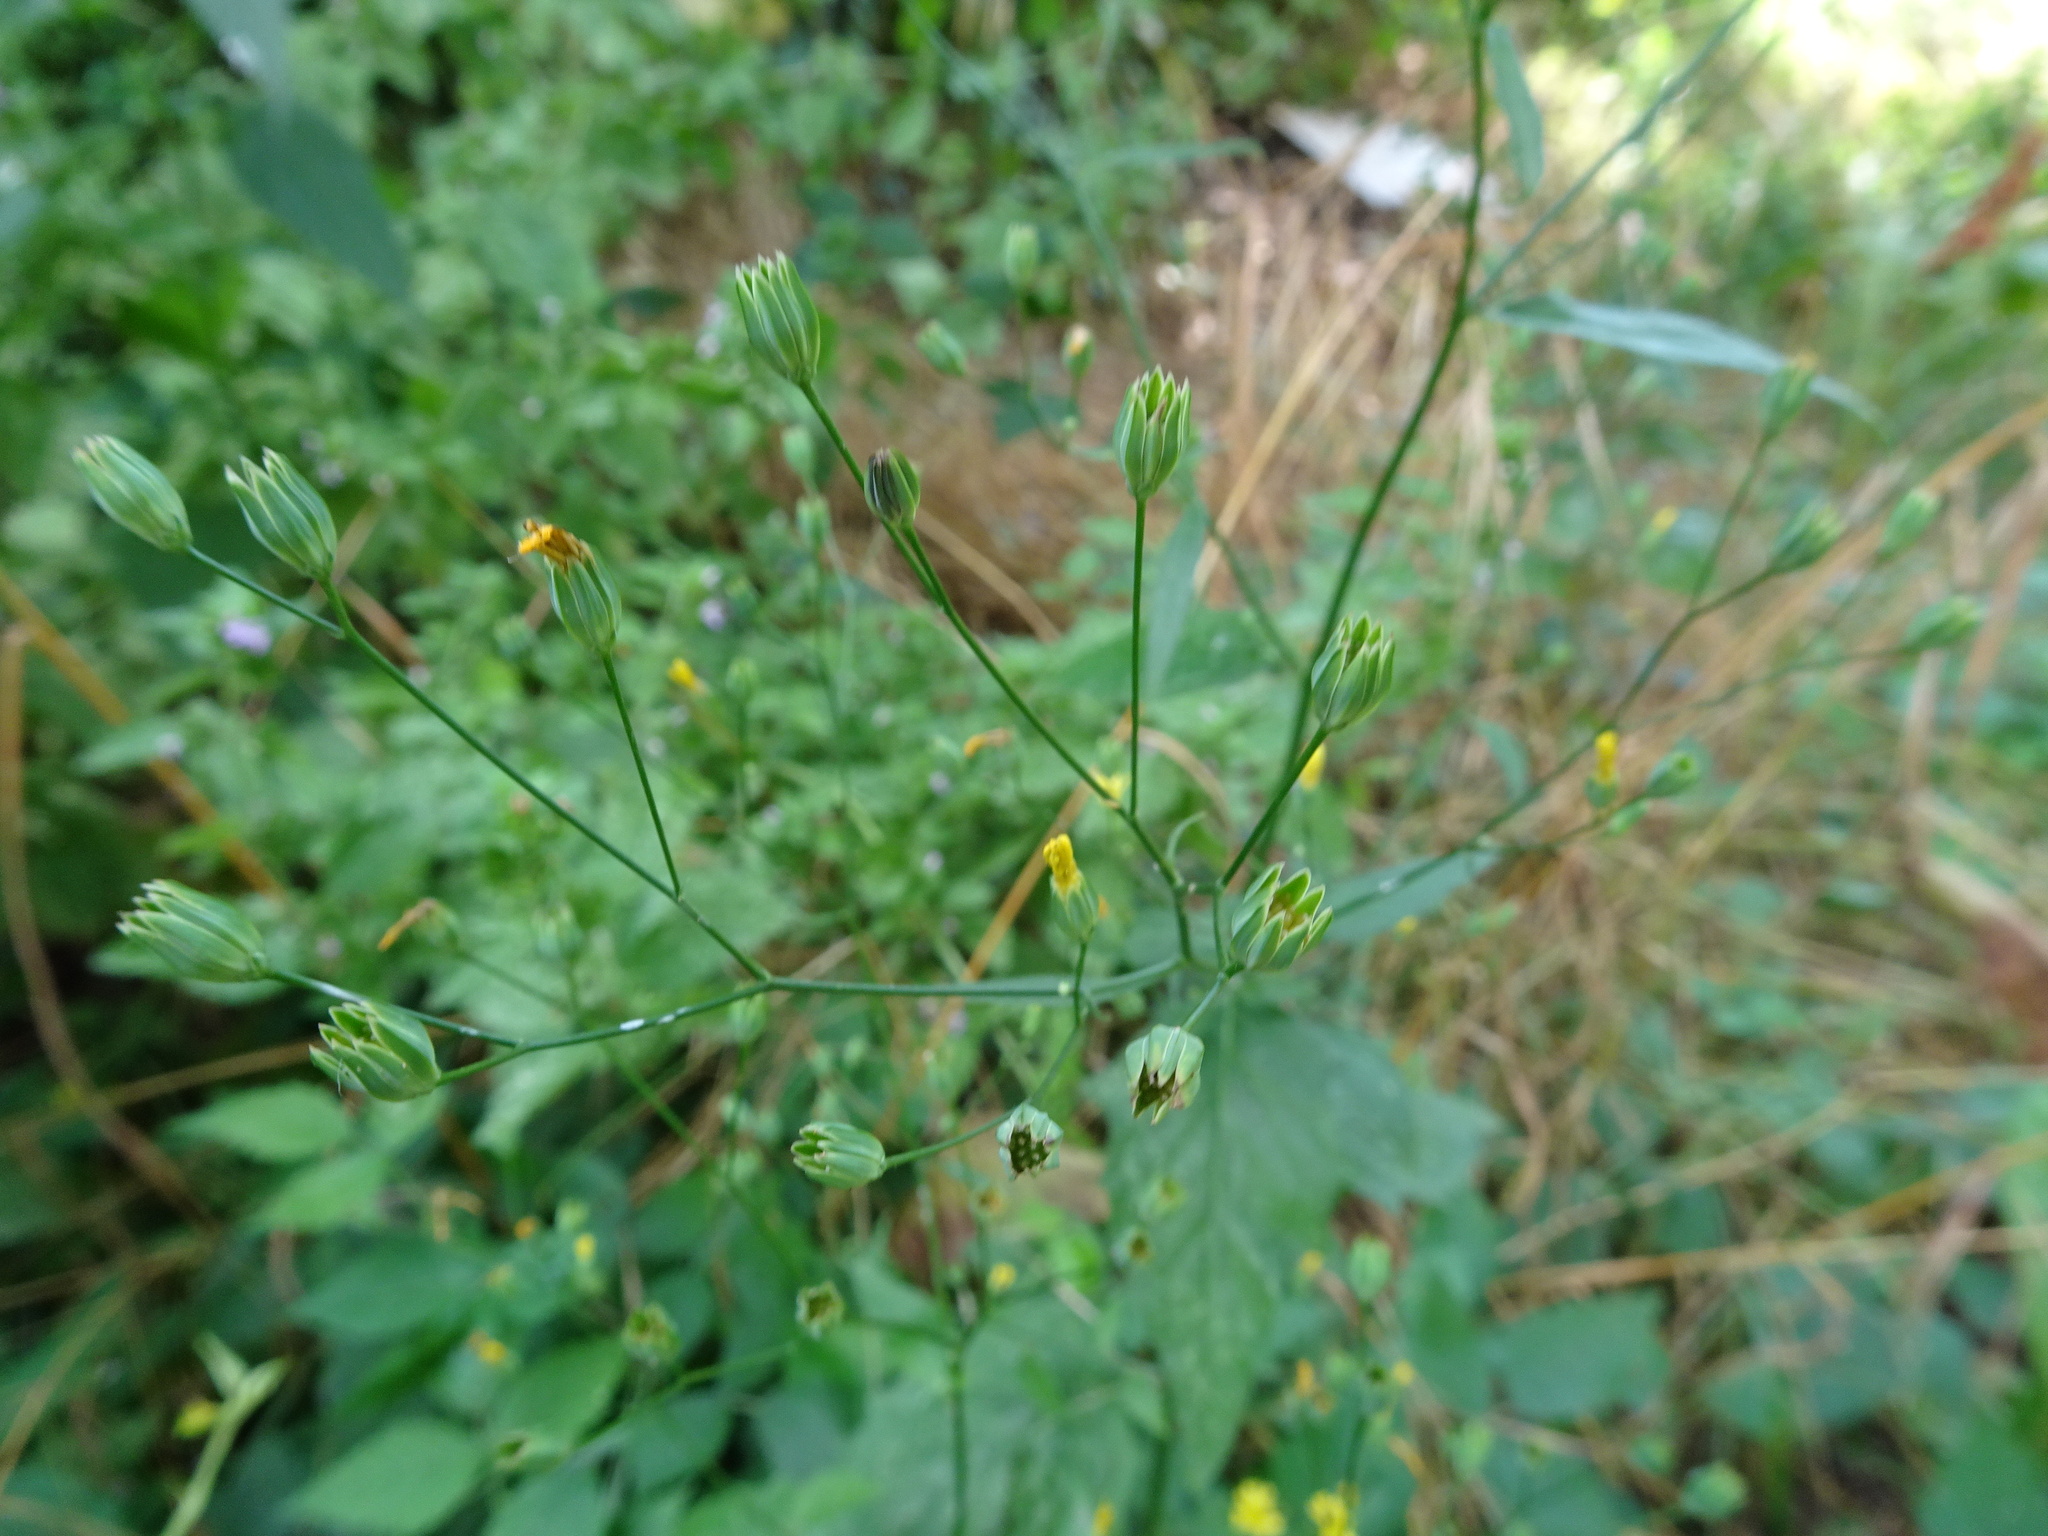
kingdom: Plantae
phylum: Tracheophyta
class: Magnoliopsida
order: Asterales
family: Asteraceae
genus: Lapsana
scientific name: Lapsana communis
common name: Nipplewort
